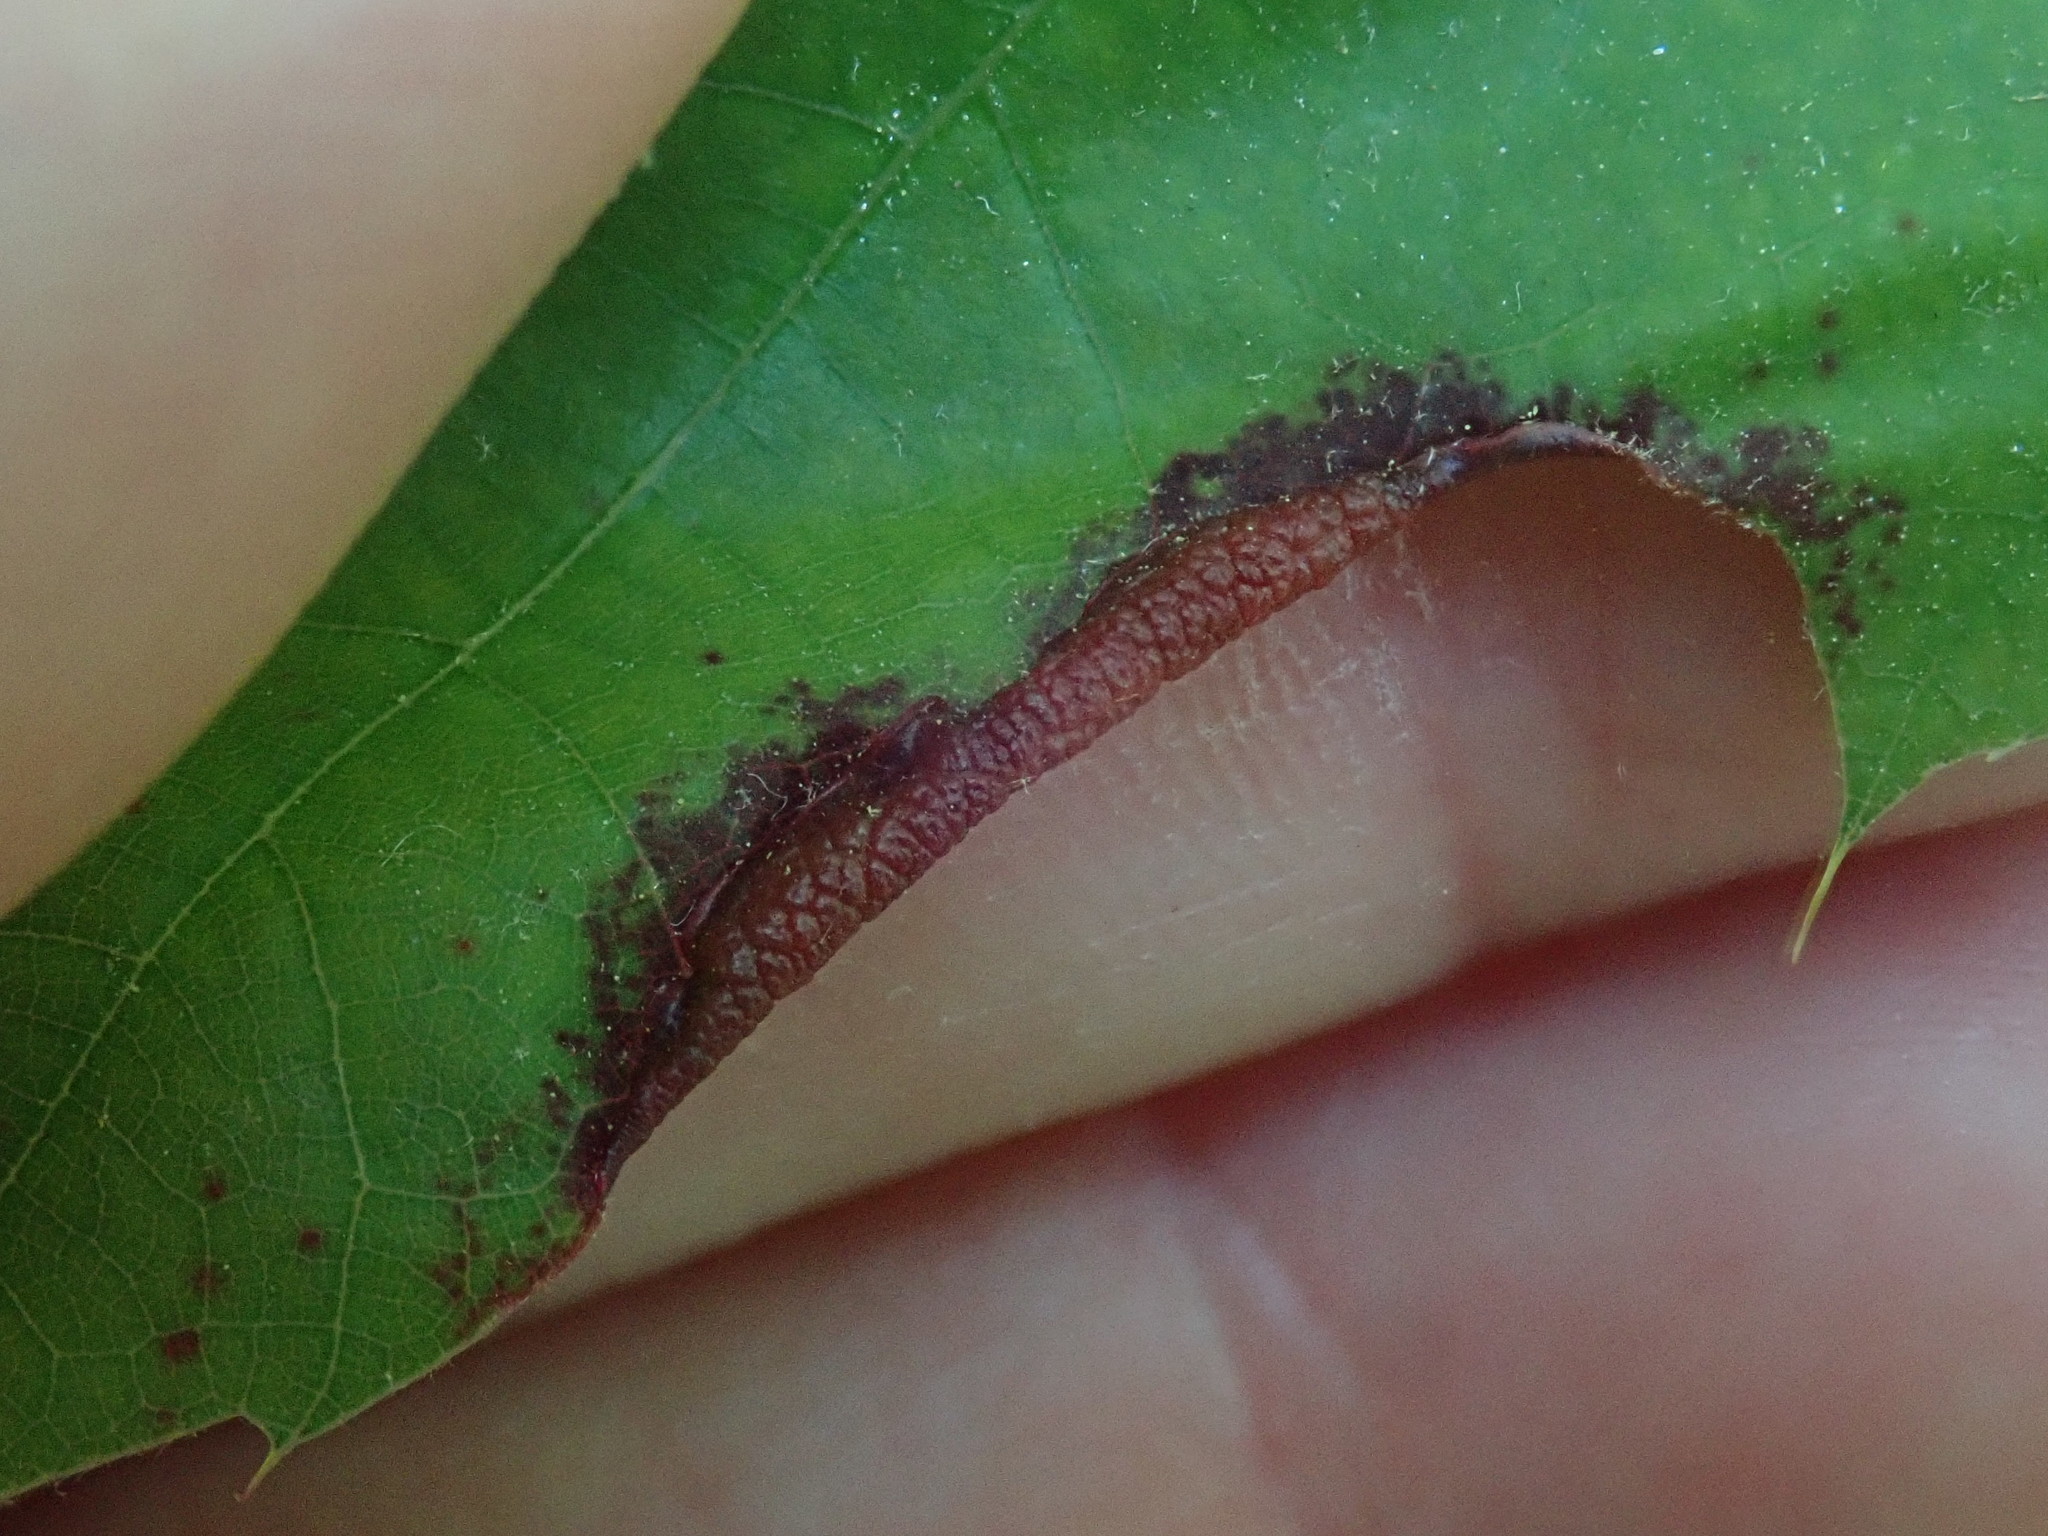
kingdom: Animalia
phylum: Arthropoda
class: Insecta
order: Diptera
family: Cecidomyiidae
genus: Macrodiplosis
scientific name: Macrodiplosis erubescens
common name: Marginal leaf fold gall midge
